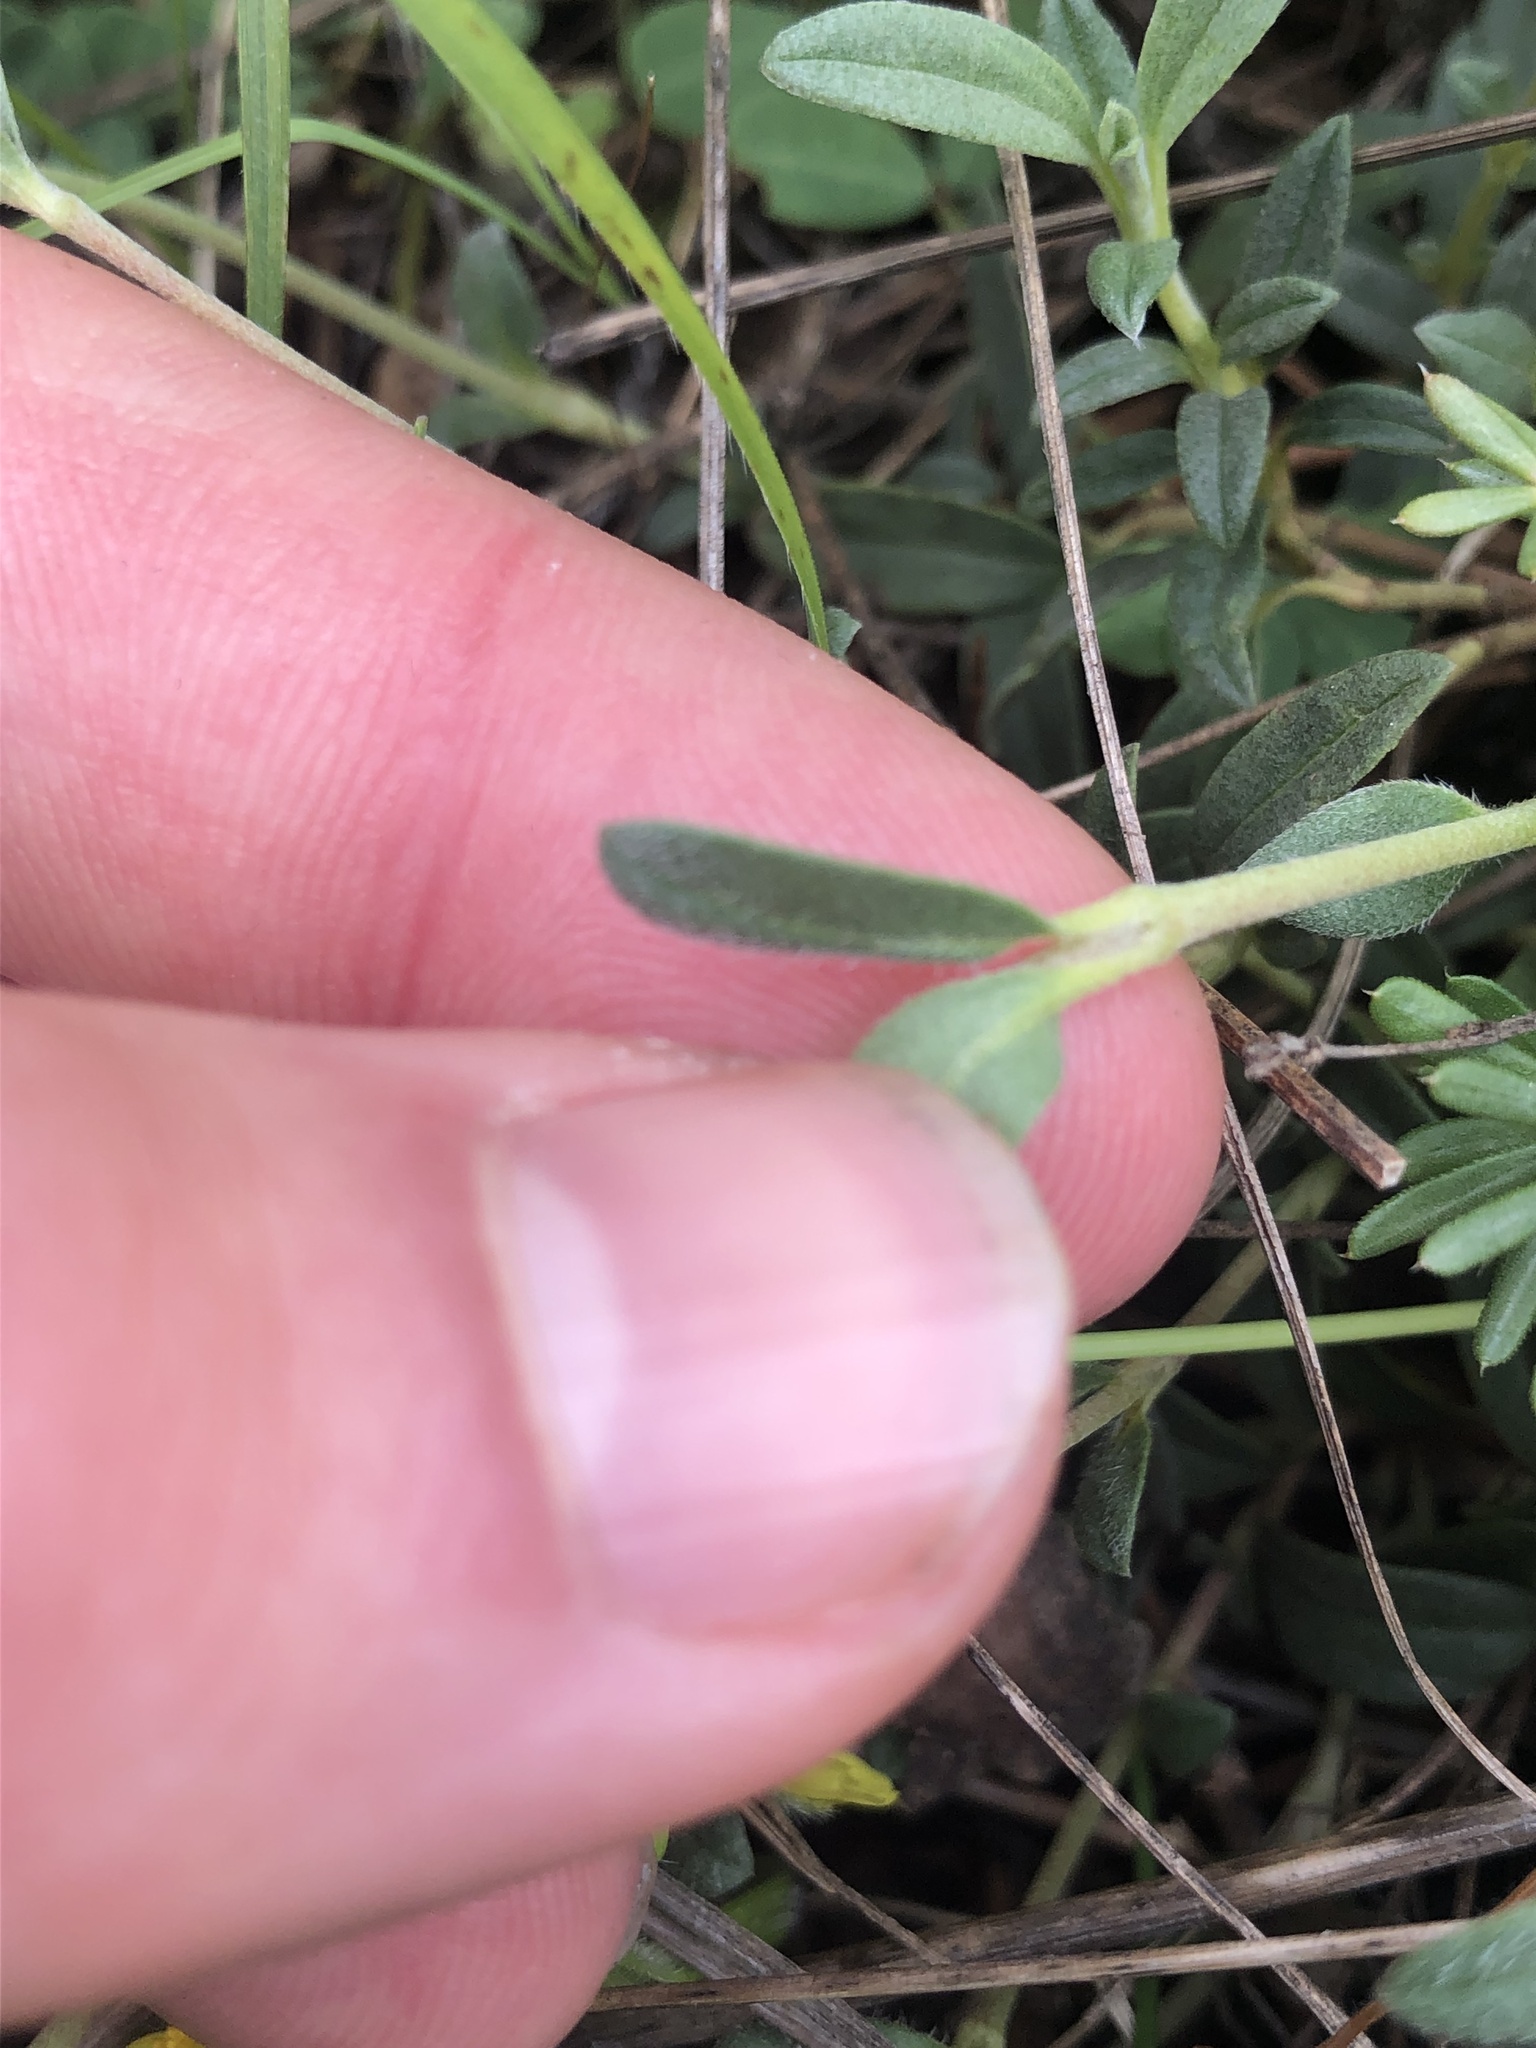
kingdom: Plantae
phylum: Tracheophyta
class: Magnoliopsida
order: Malvales
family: Cistaceae
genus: Helianthemum
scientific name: Helianthemum canum
